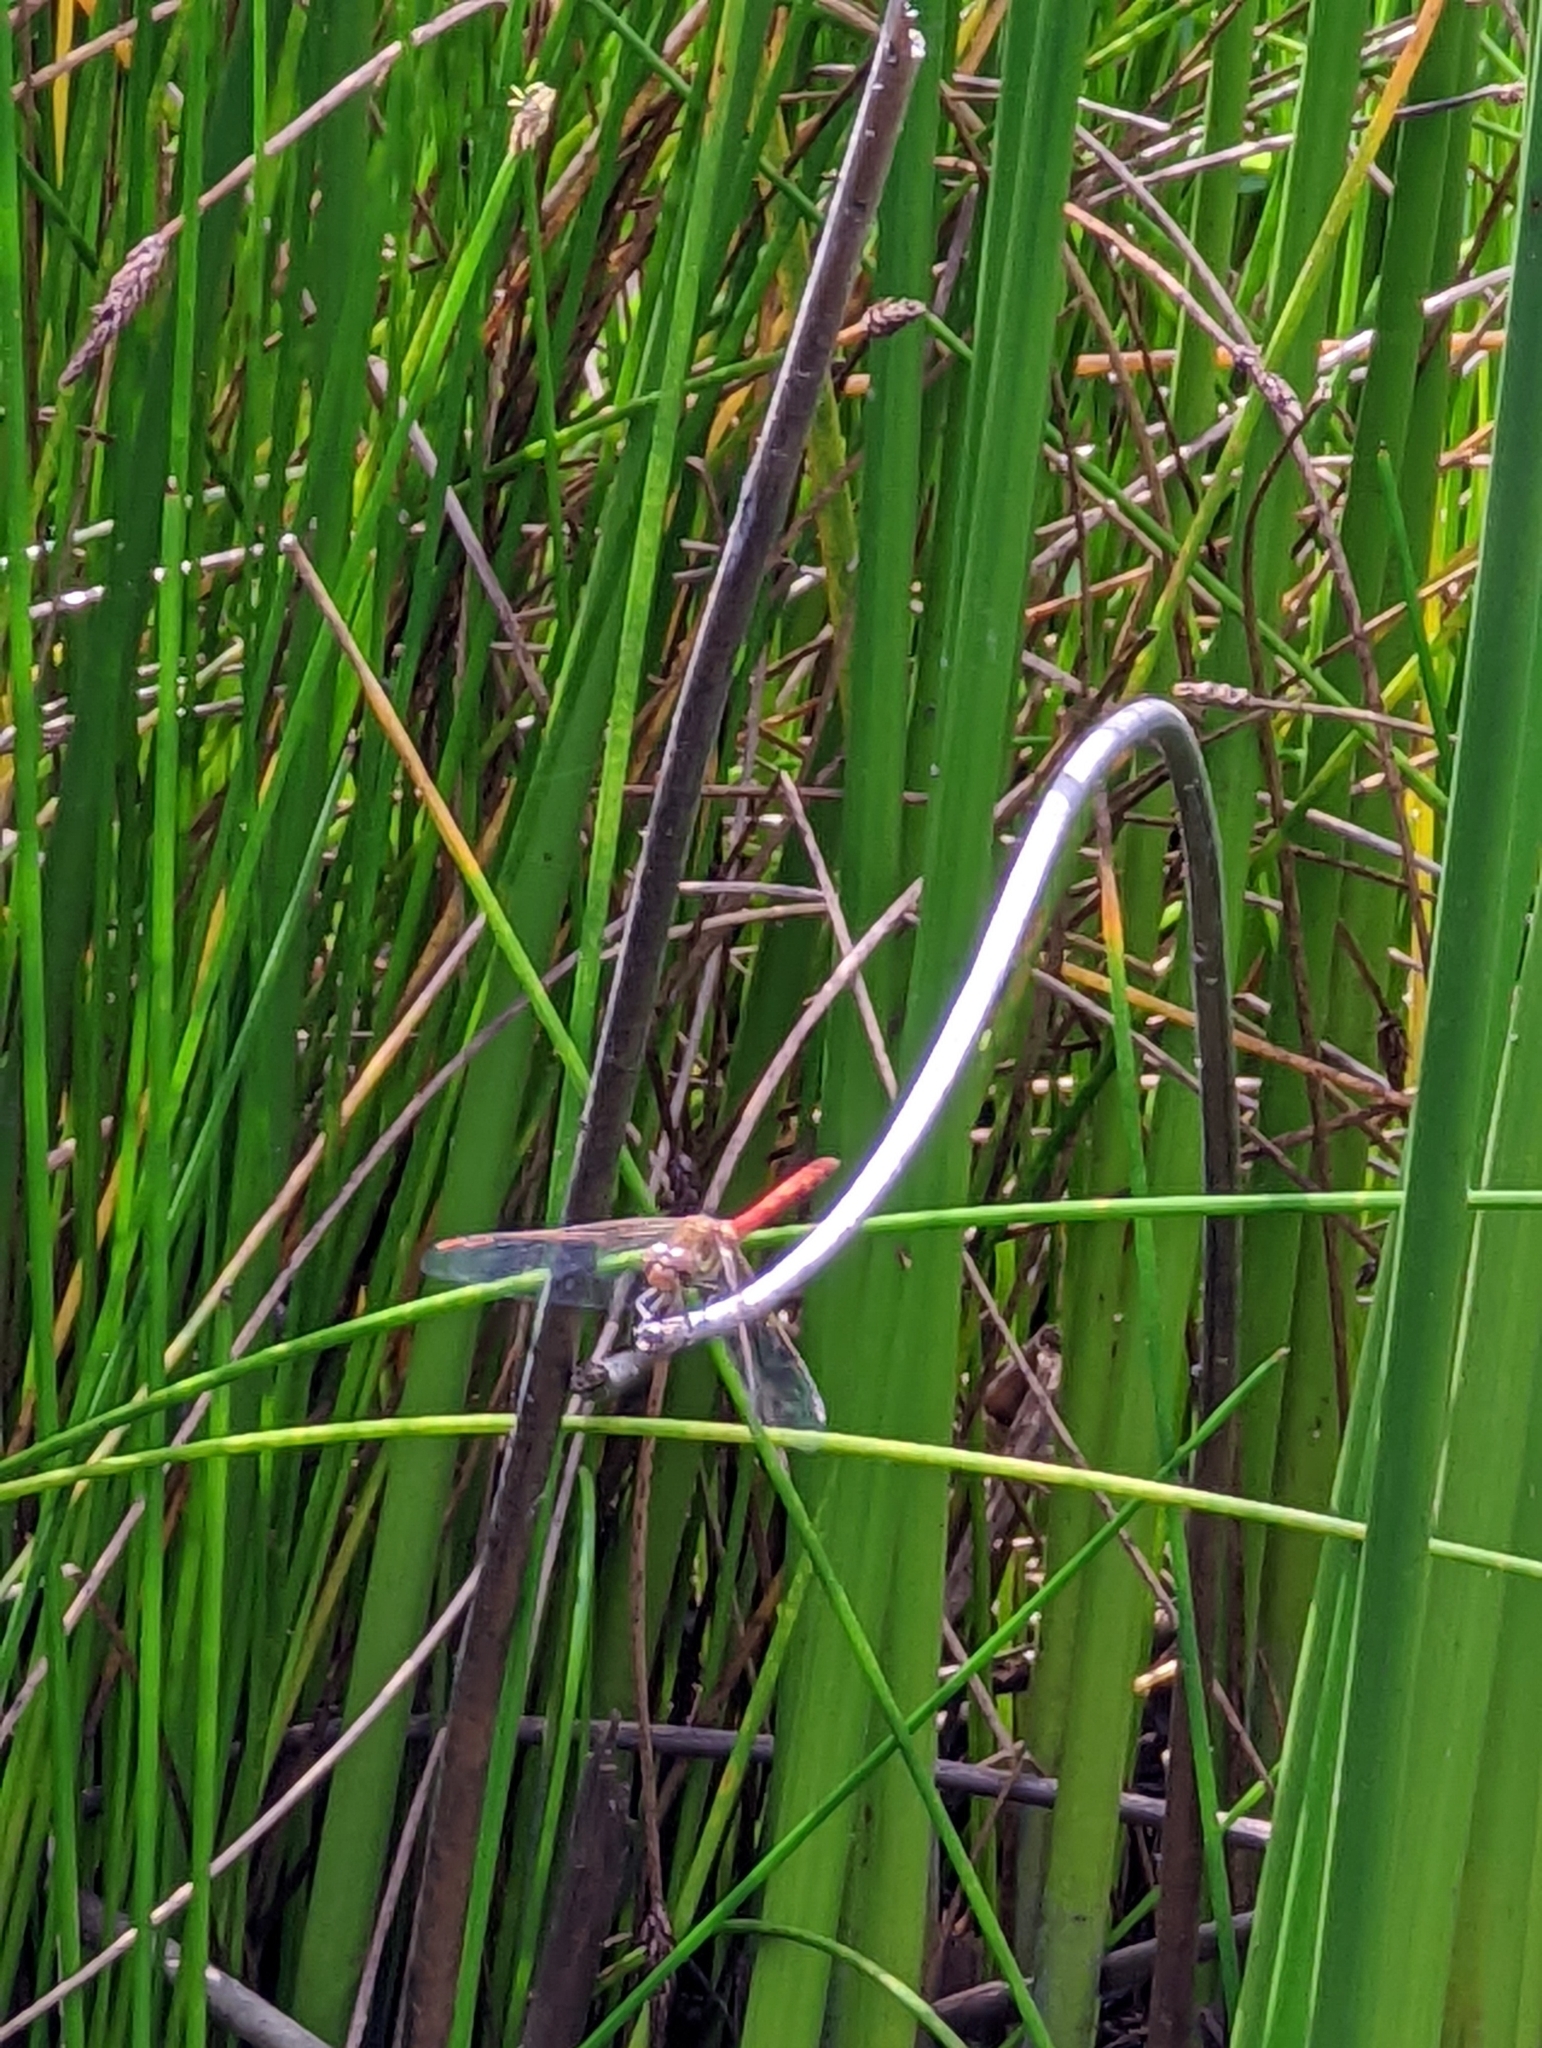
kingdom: Animalia
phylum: Arthropoda
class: Insecta
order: Odonata
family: Libellulidae
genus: Sympetrum
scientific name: Sympetrum striolatum
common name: Common darter
